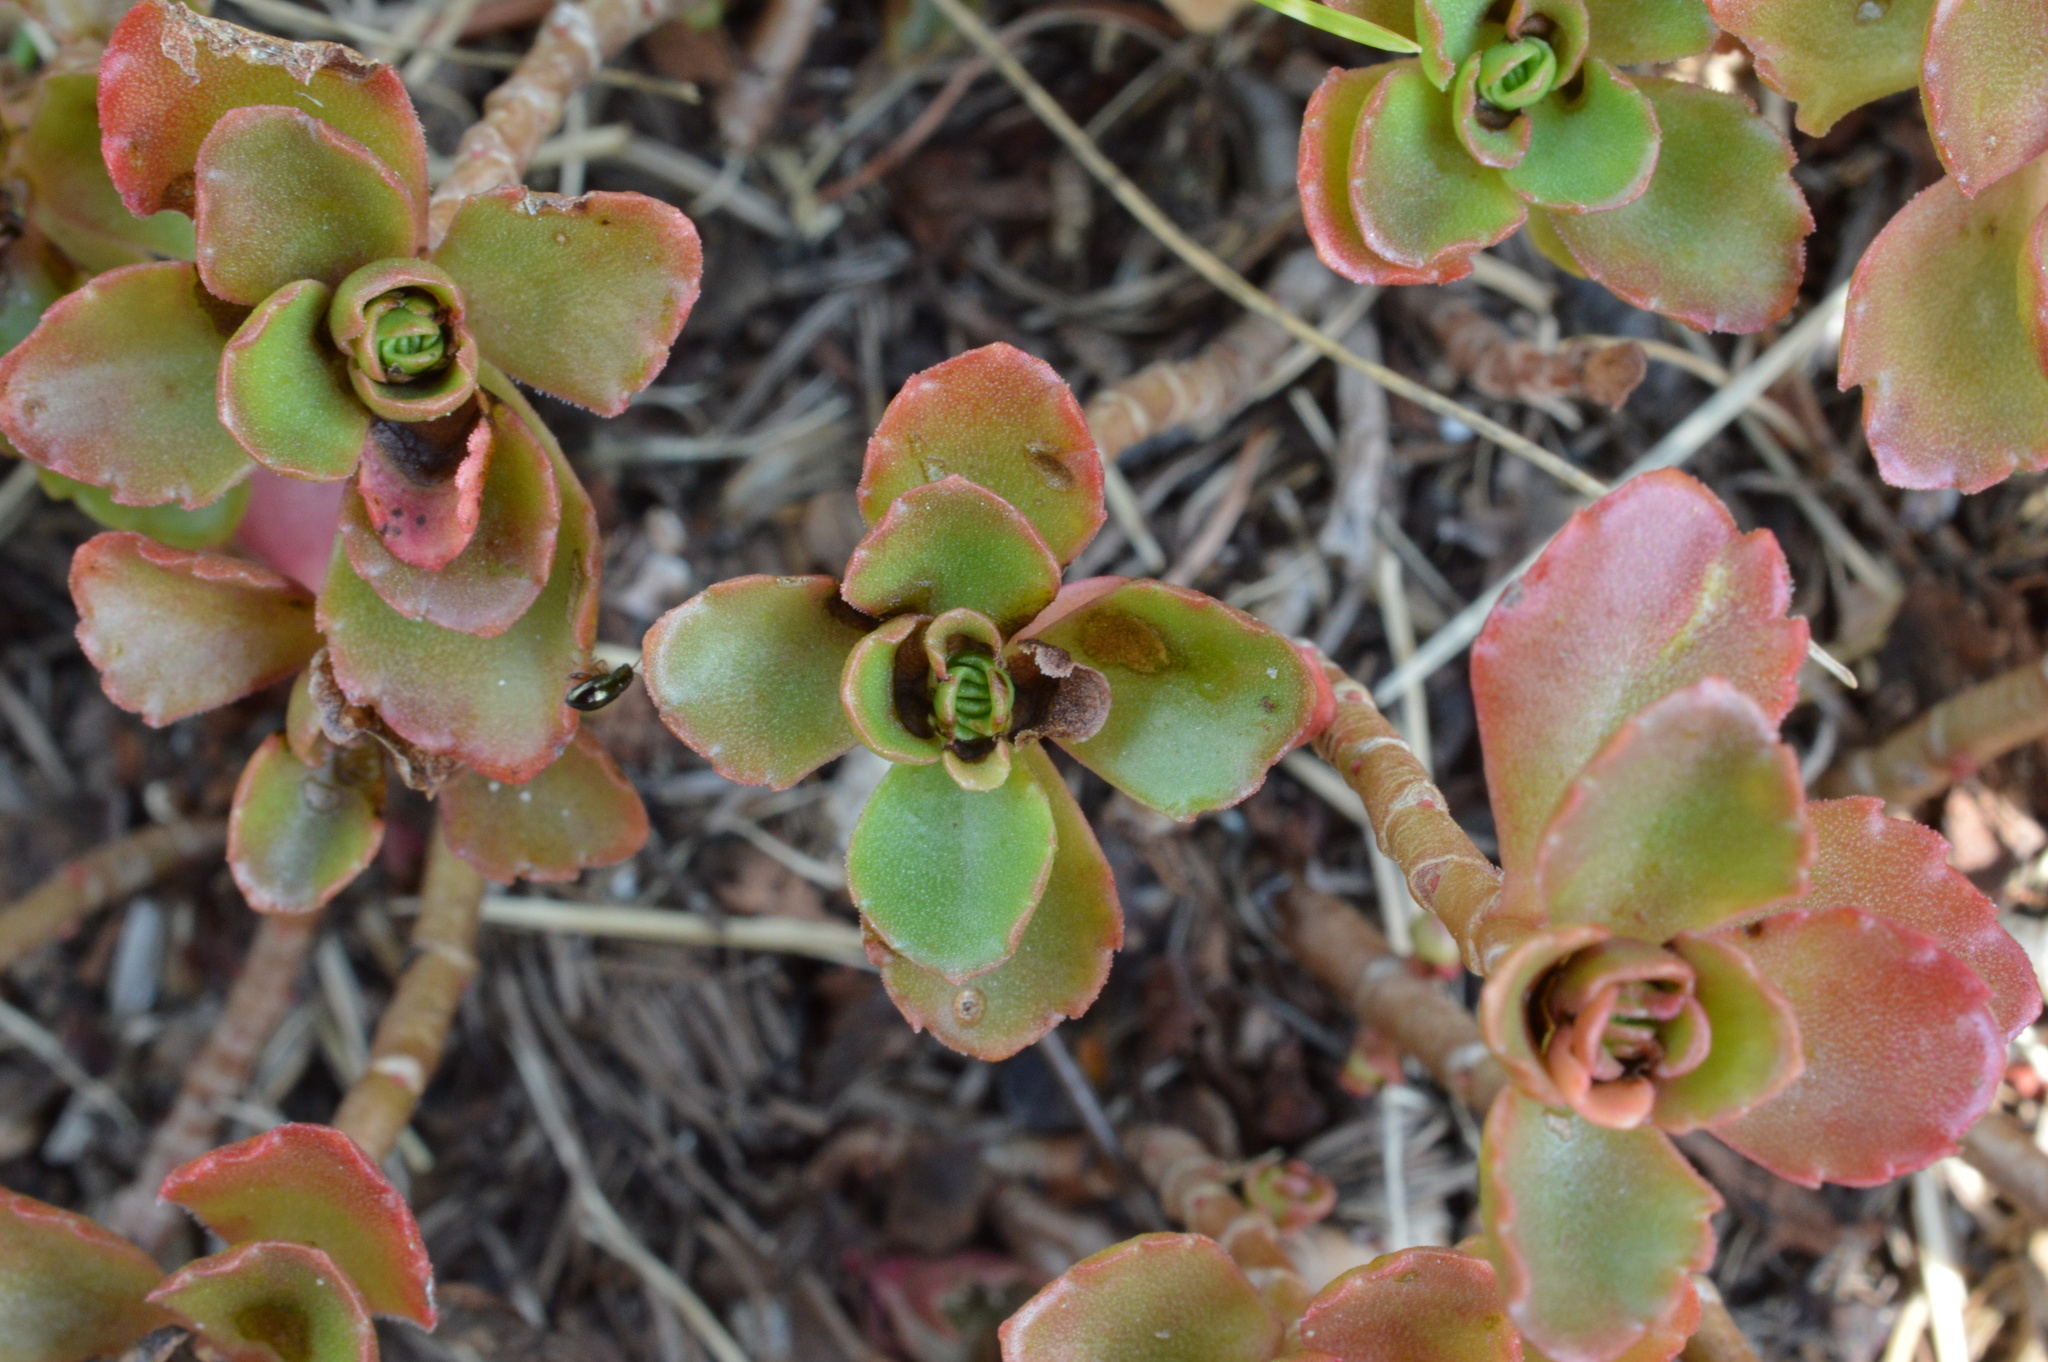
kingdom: Plantae
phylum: Tracheophyta
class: Magnoliopsida
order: Saxifragales
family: Crassulaceae
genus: Phedimus
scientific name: Phedimus spurius
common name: Caucasian stonecrop
